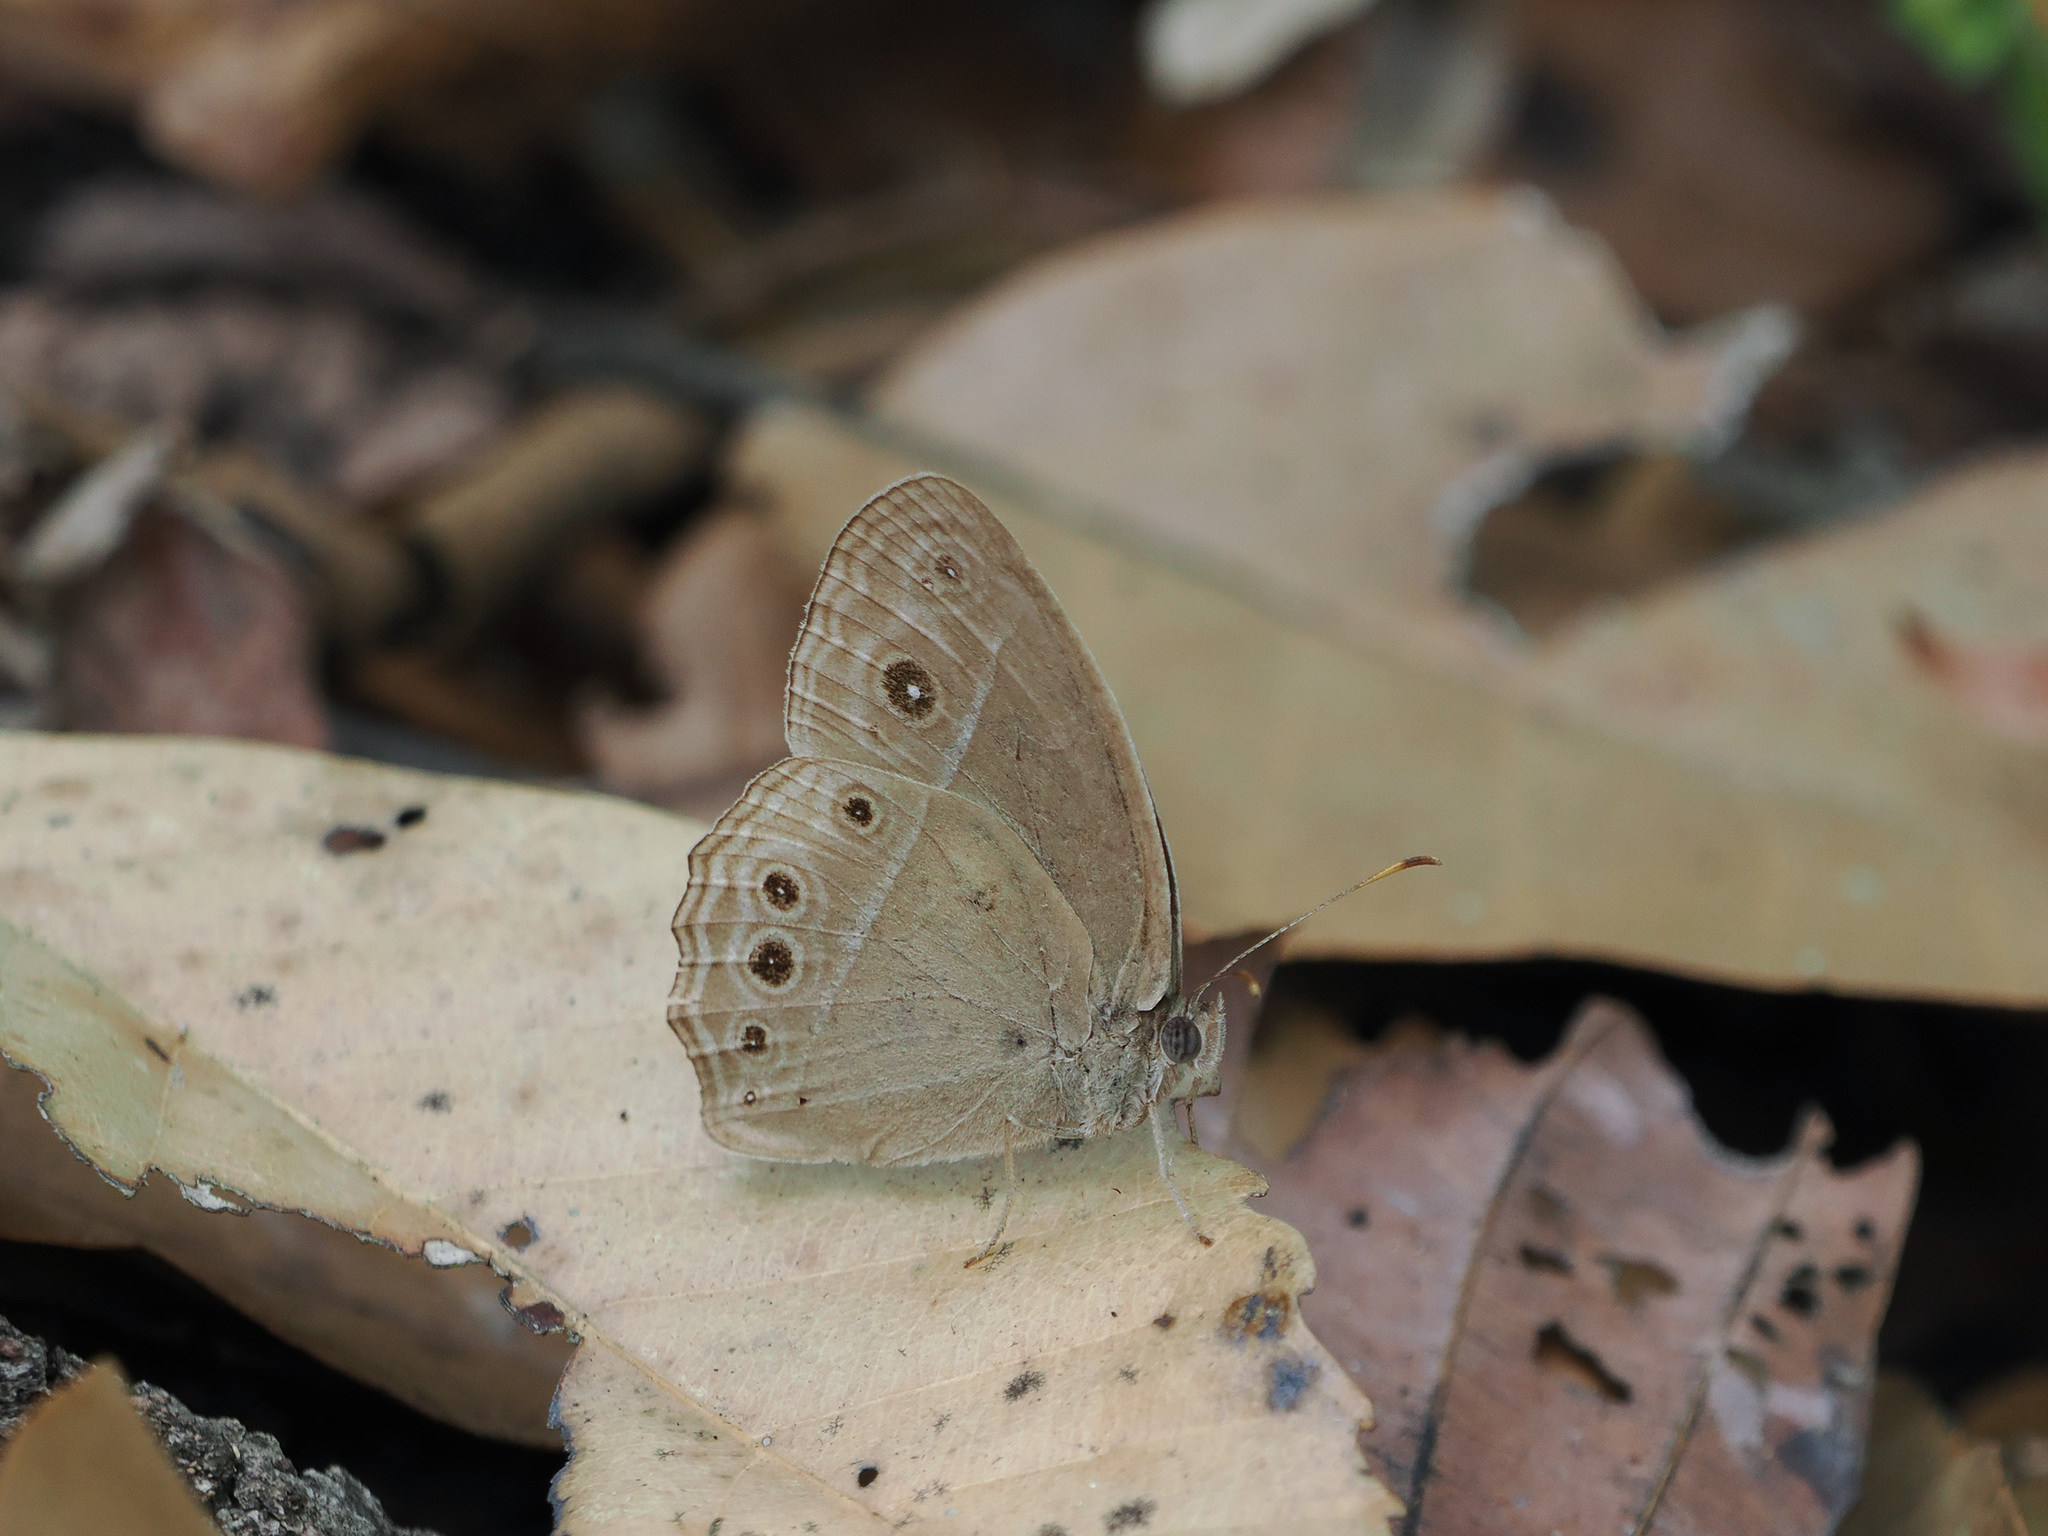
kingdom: Animalia
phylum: Arthropoda
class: Insecta
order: Lepidoptera
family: Nymphalidae
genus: Mycalesis
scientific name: Mycalesis perseoides
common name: Burmese bushbrown
